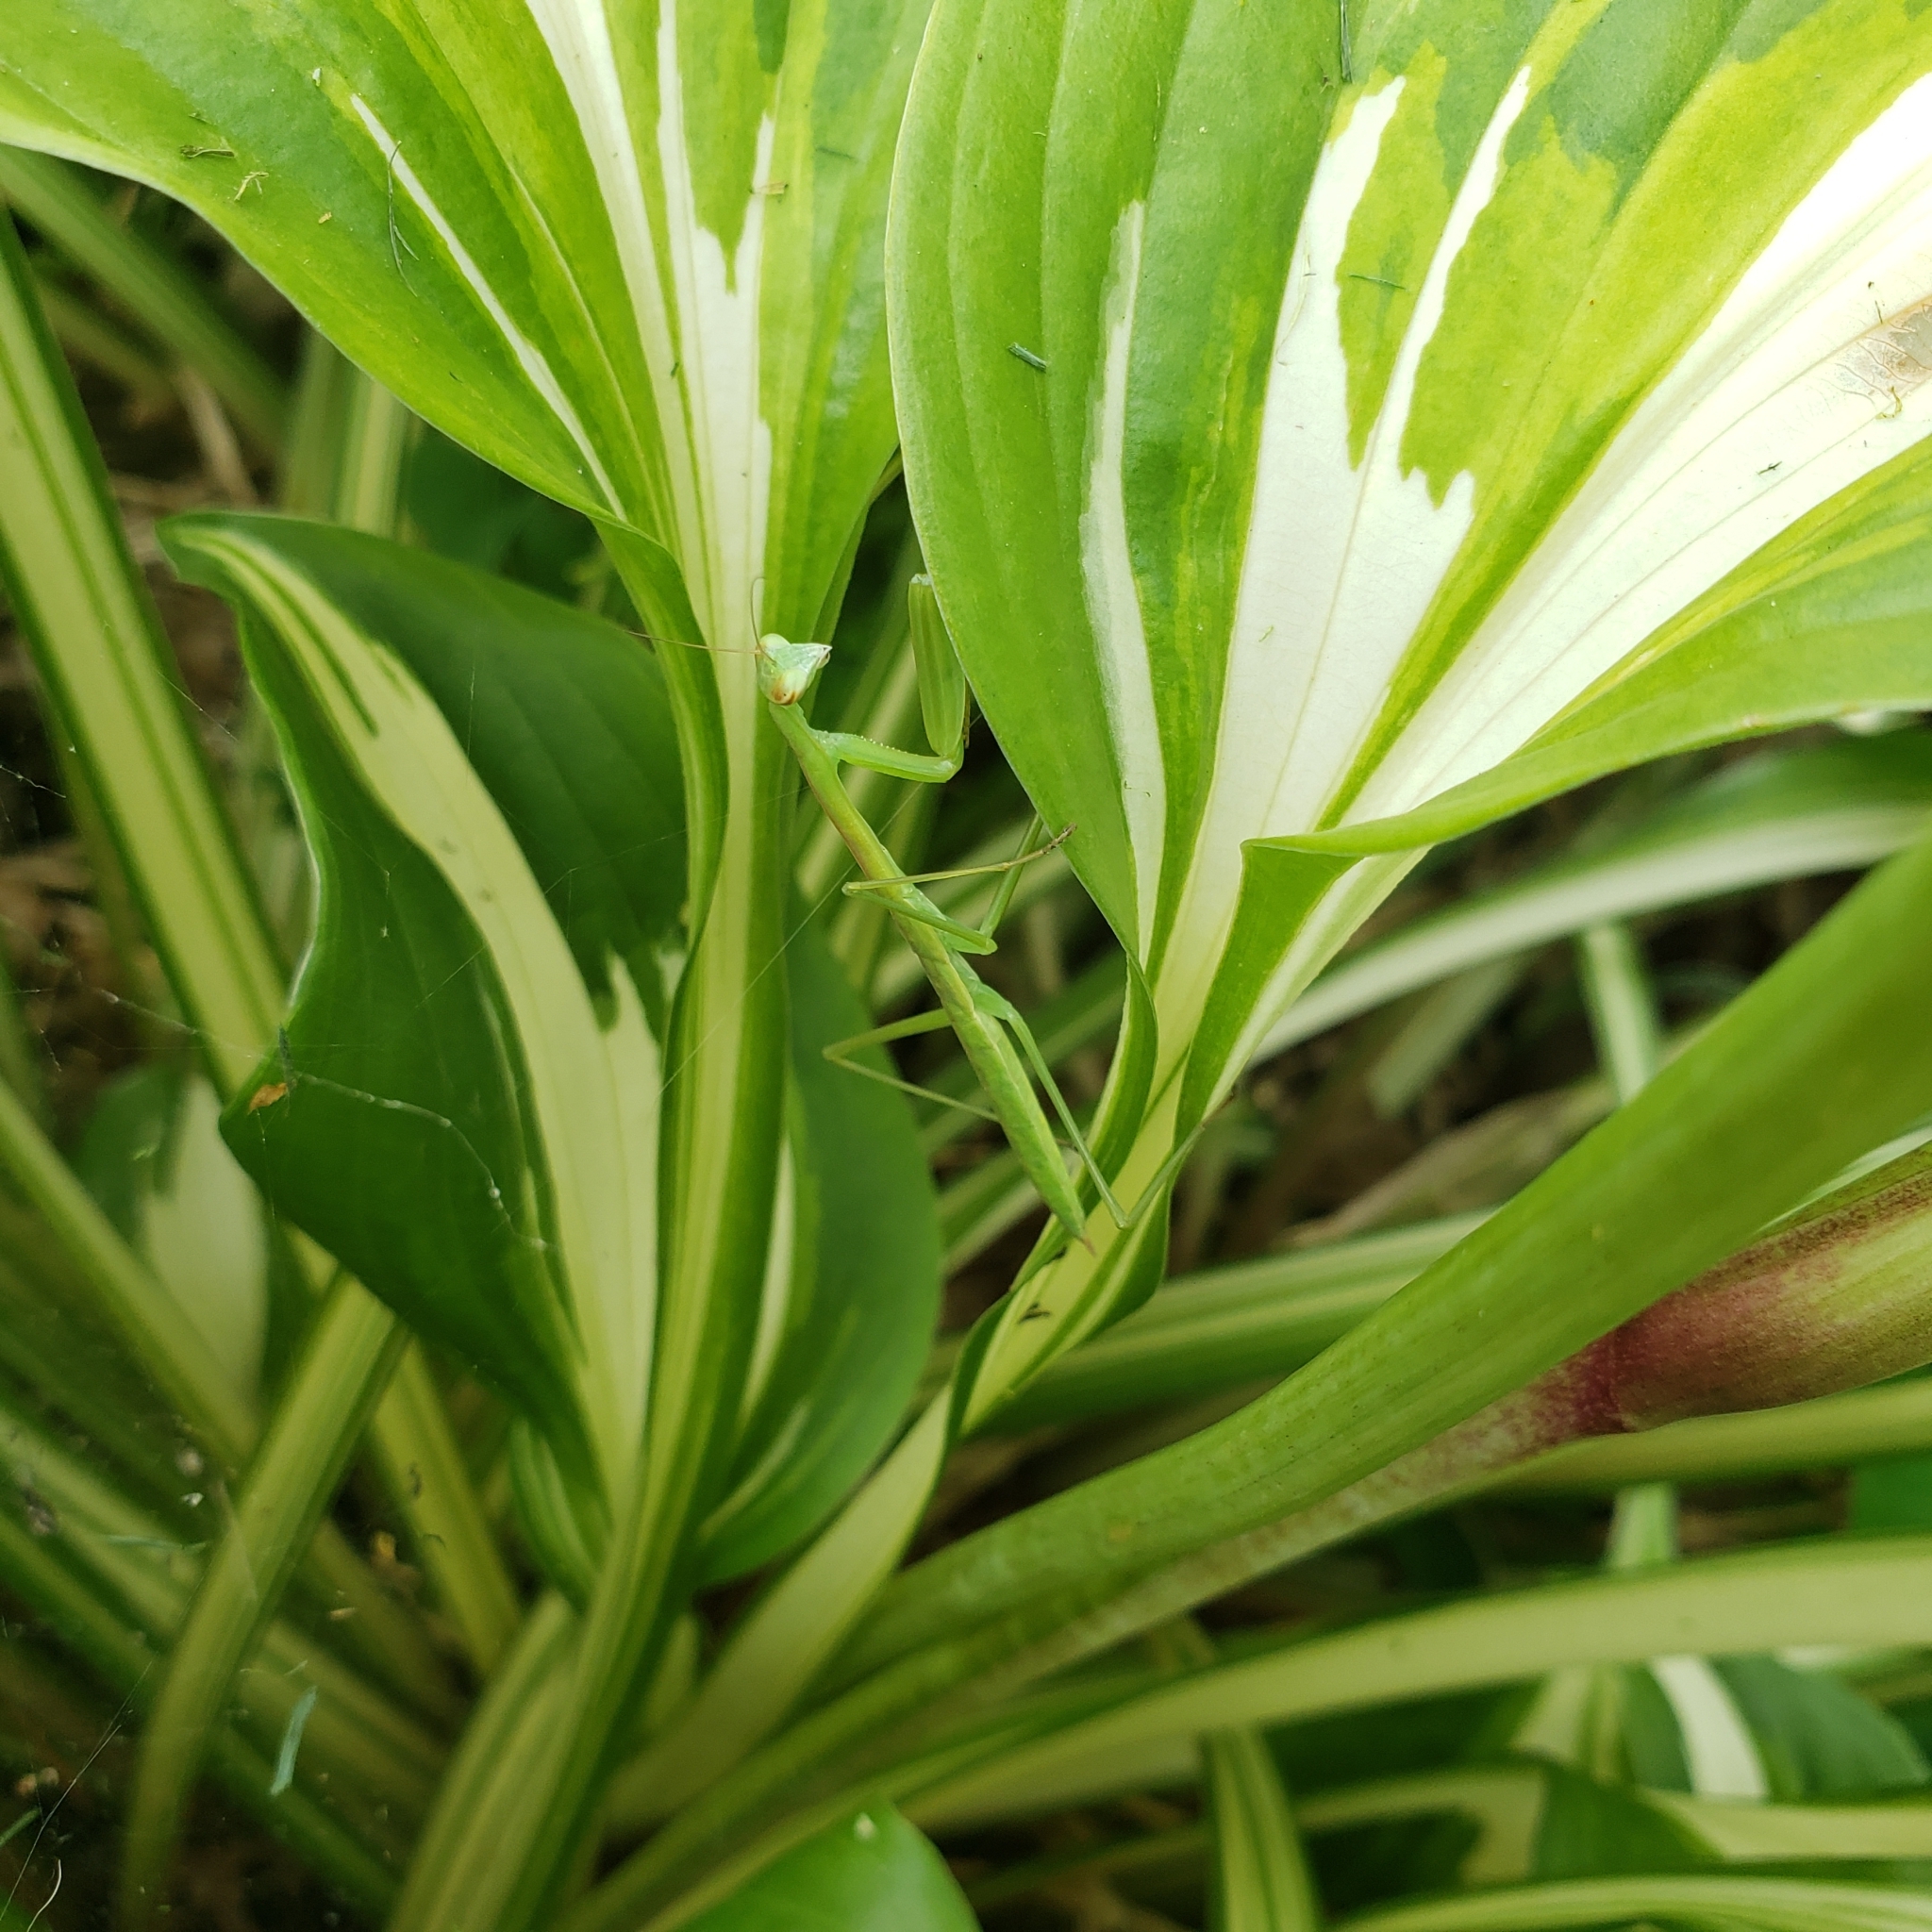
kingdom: Animalia
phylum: Arthropoda
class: Insecta
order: Mantodea
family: Mantidae
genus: Tenodera
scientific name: Tenodera sinensis
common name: Chinese mantis
